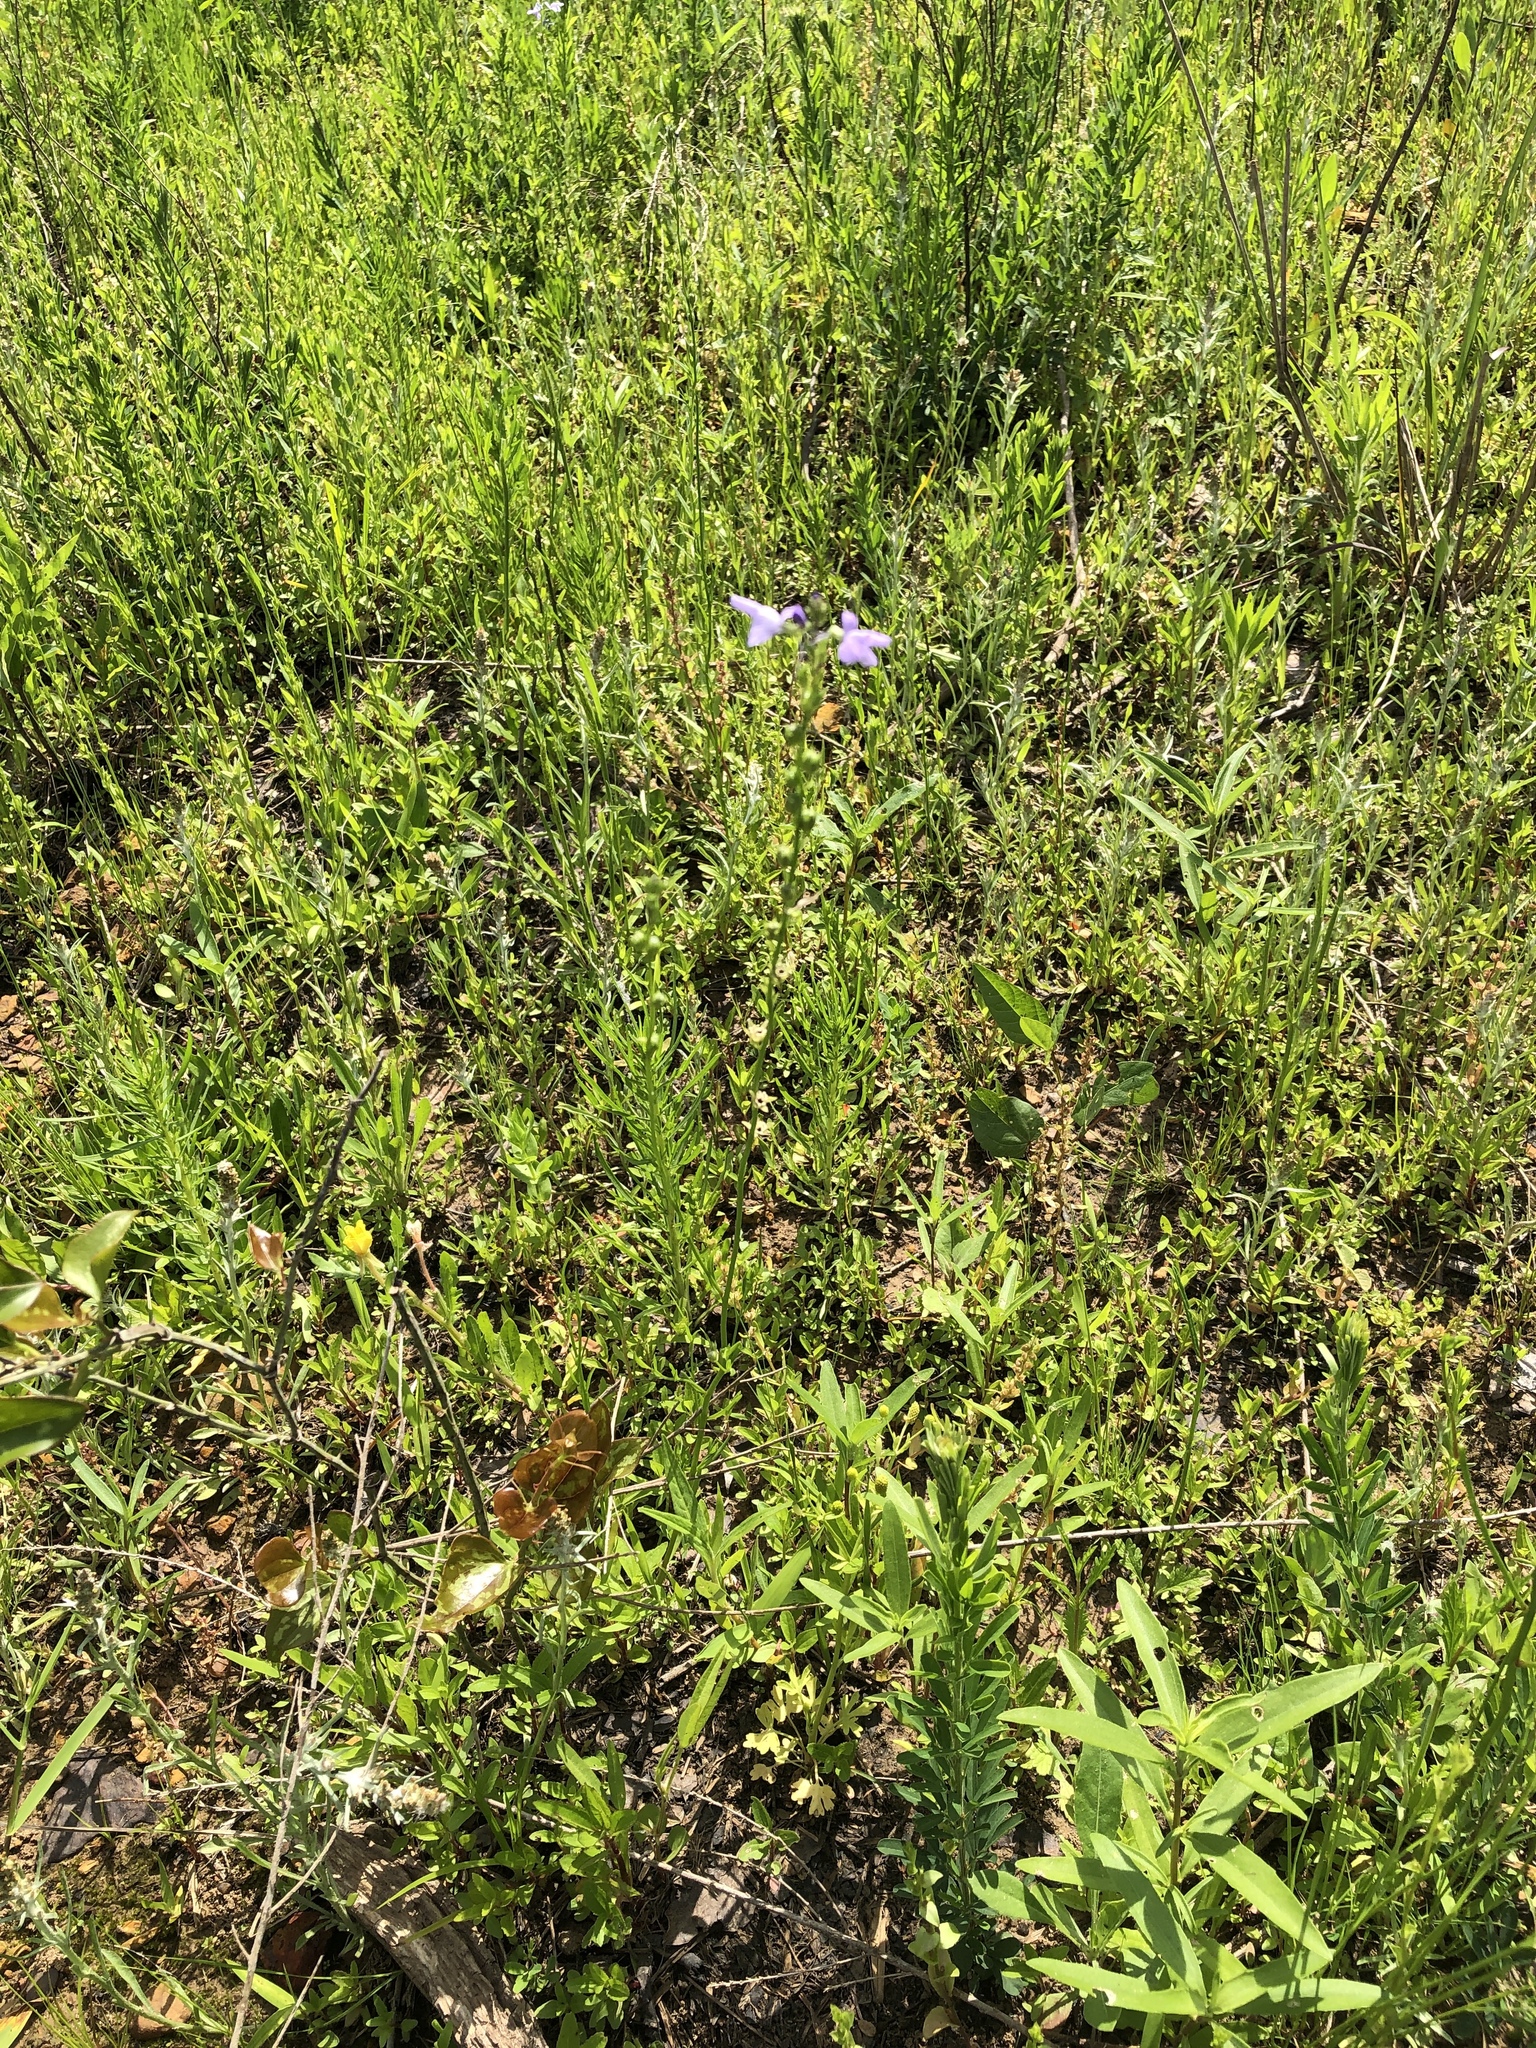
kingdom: Plantae
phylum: Tracheophyta
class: Magnoliopsida
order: Lamiales
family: Plantaginaceae
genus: Nuttallanthus
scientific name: Nuttallanthus texanus
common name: Texas toadflax
